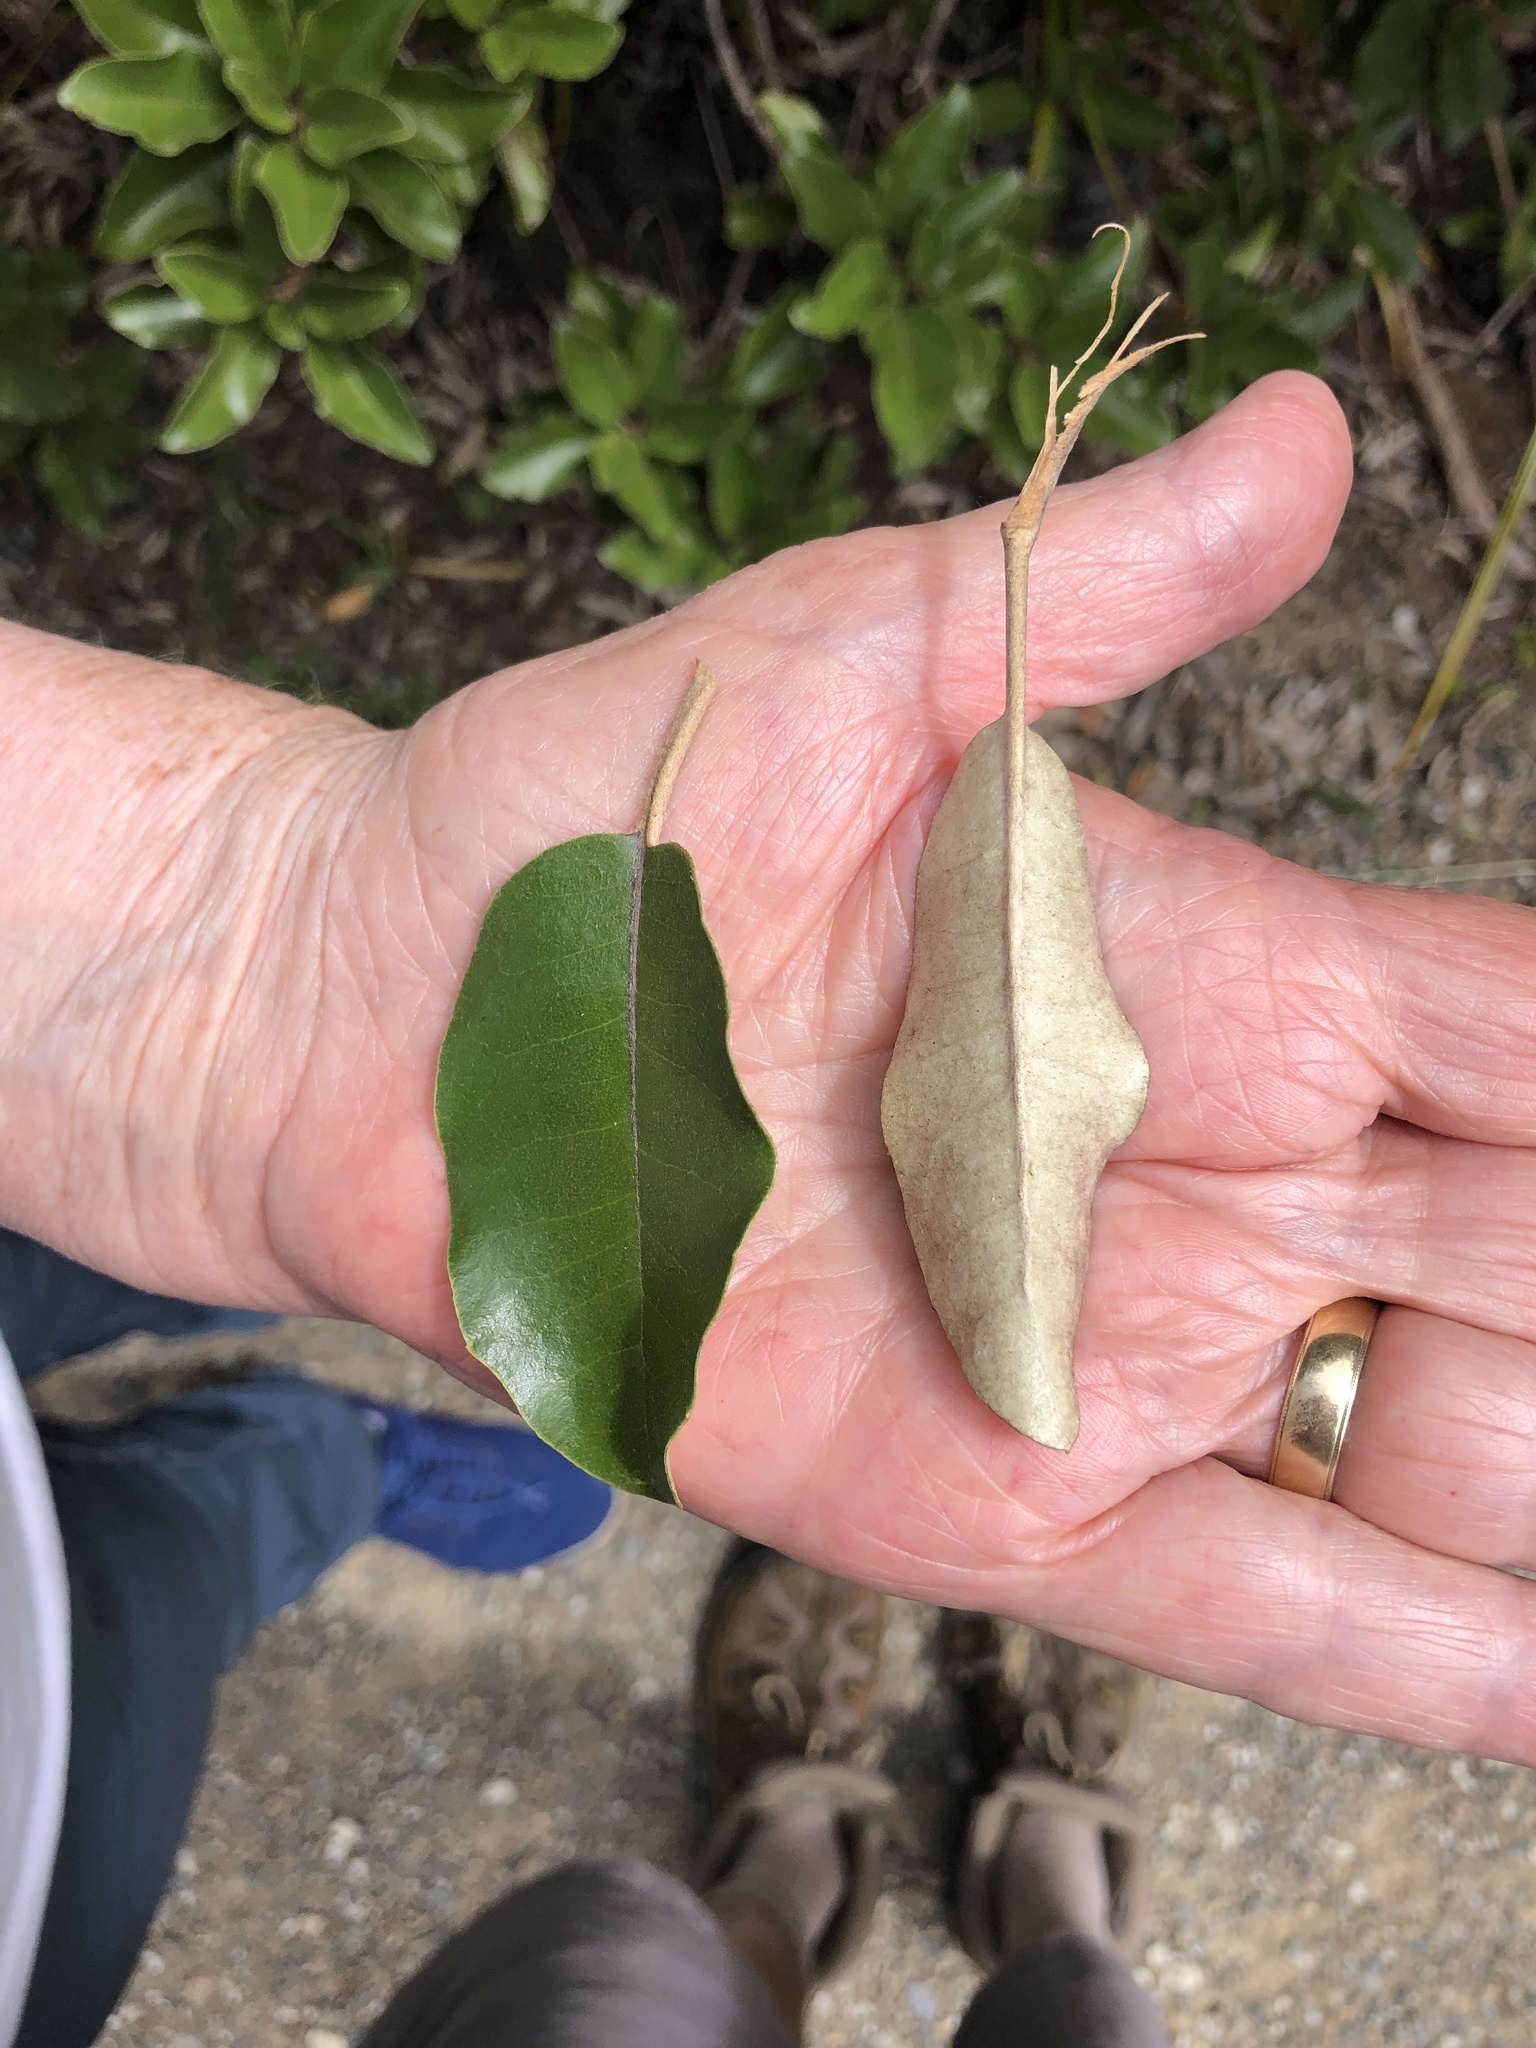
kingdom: Plantae
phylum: Tracheophyta
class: Magnoliopsida
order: Asterales
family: Asteraceae
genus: Olearia
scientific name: Olearia furfuracea
